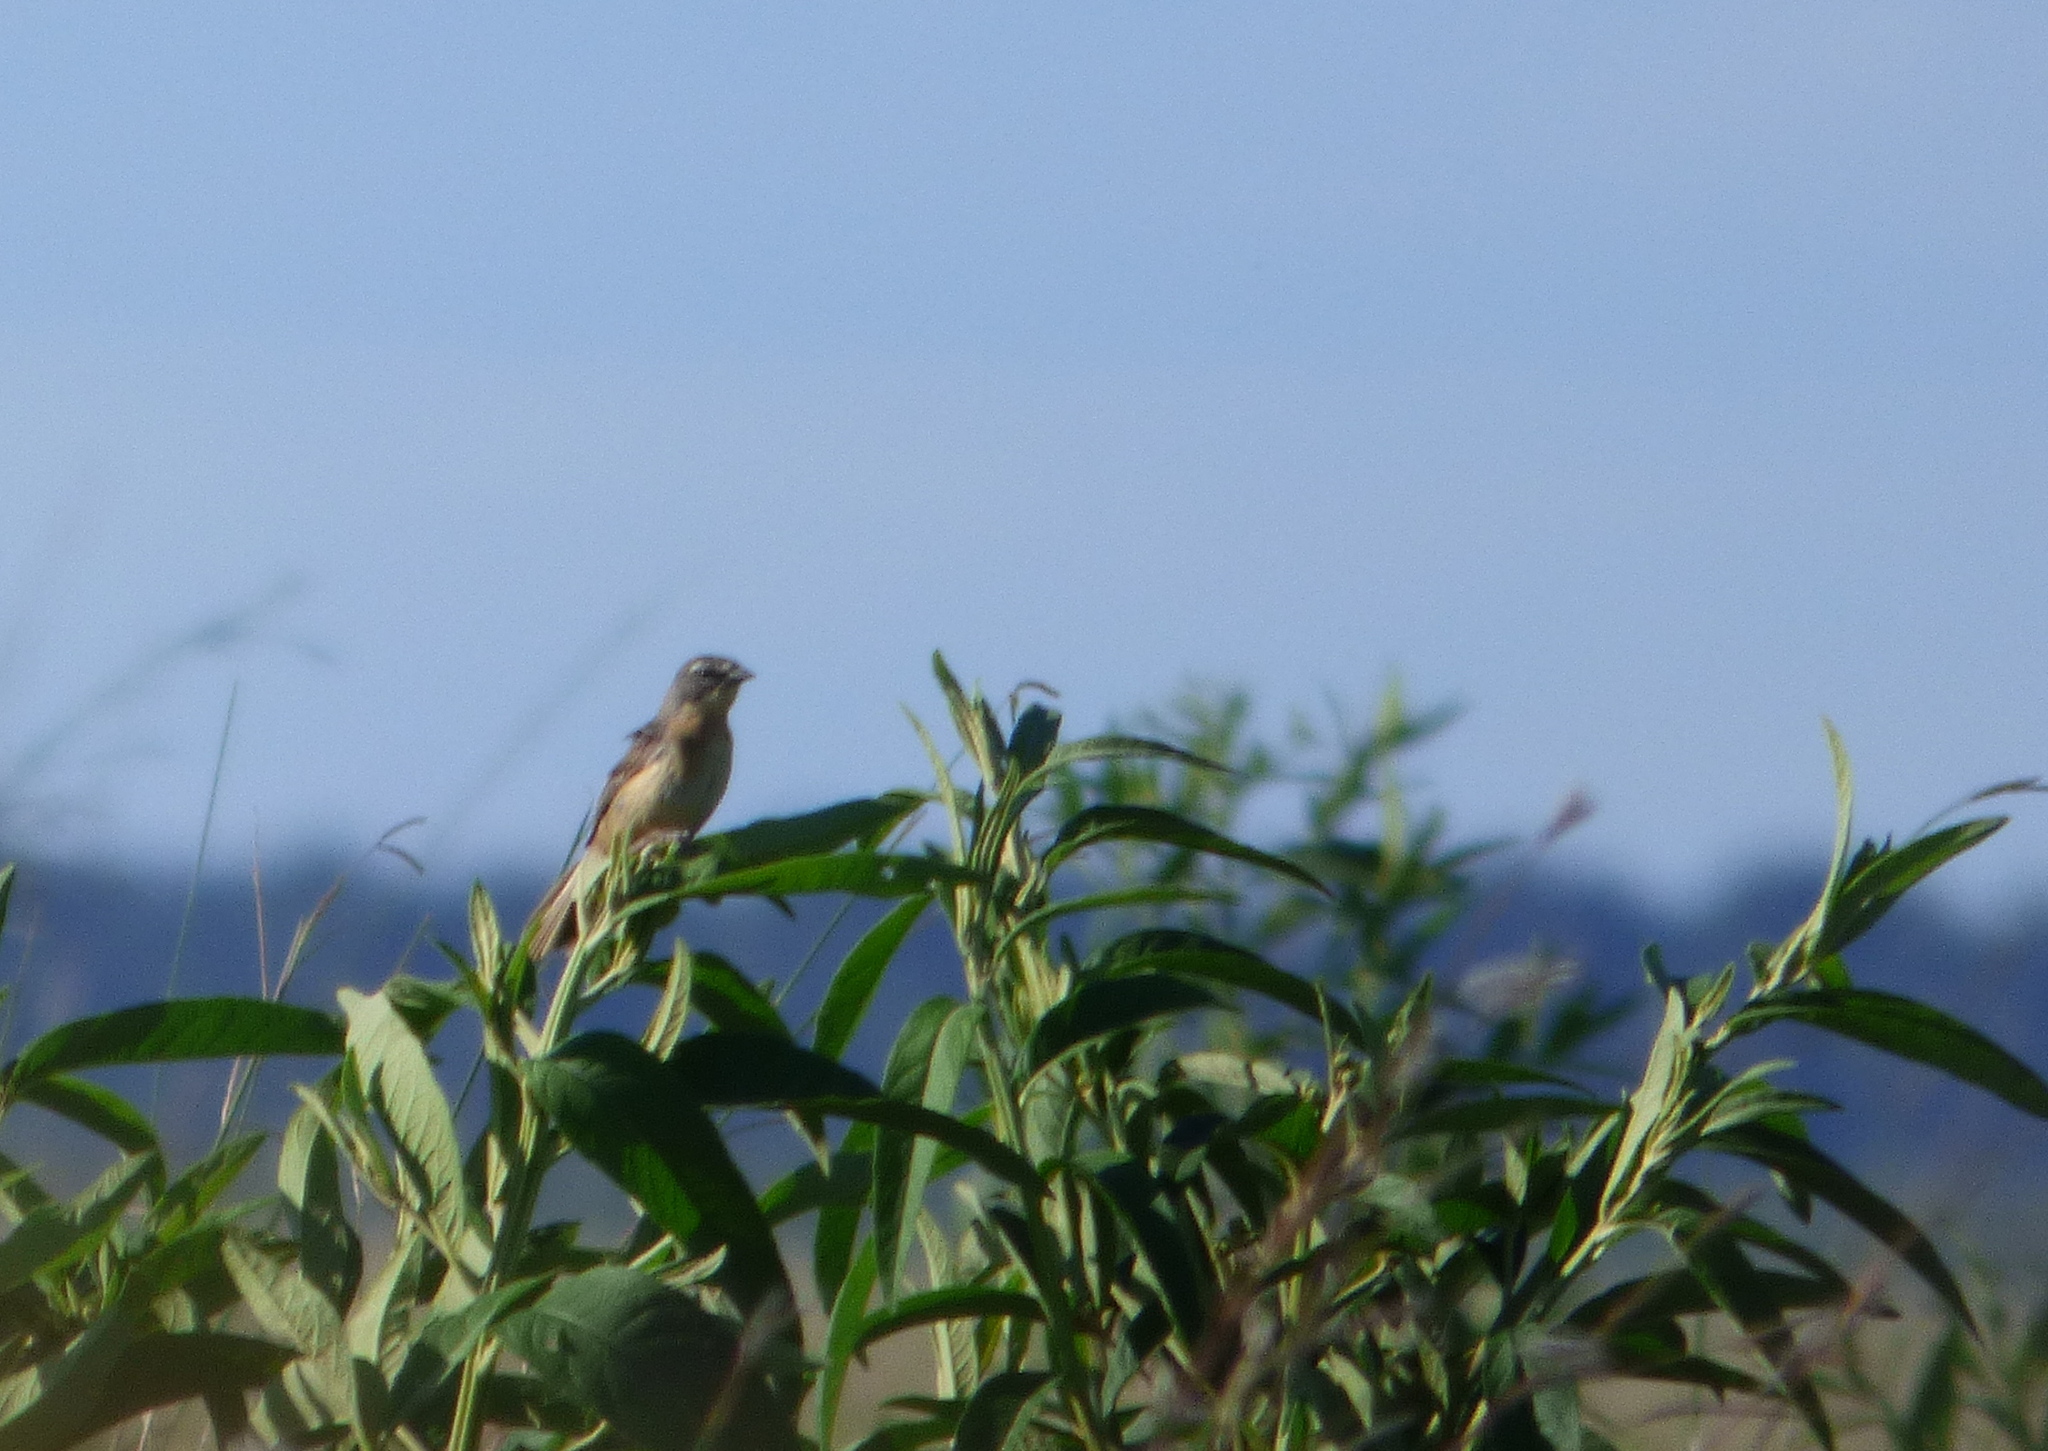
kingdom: Animalia
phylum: Chordata
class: Aves
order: Passeriformes
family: Thraupidae
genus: Donacospiza
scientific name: Donacospiza albifrons
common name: Long-tailed reed finch
